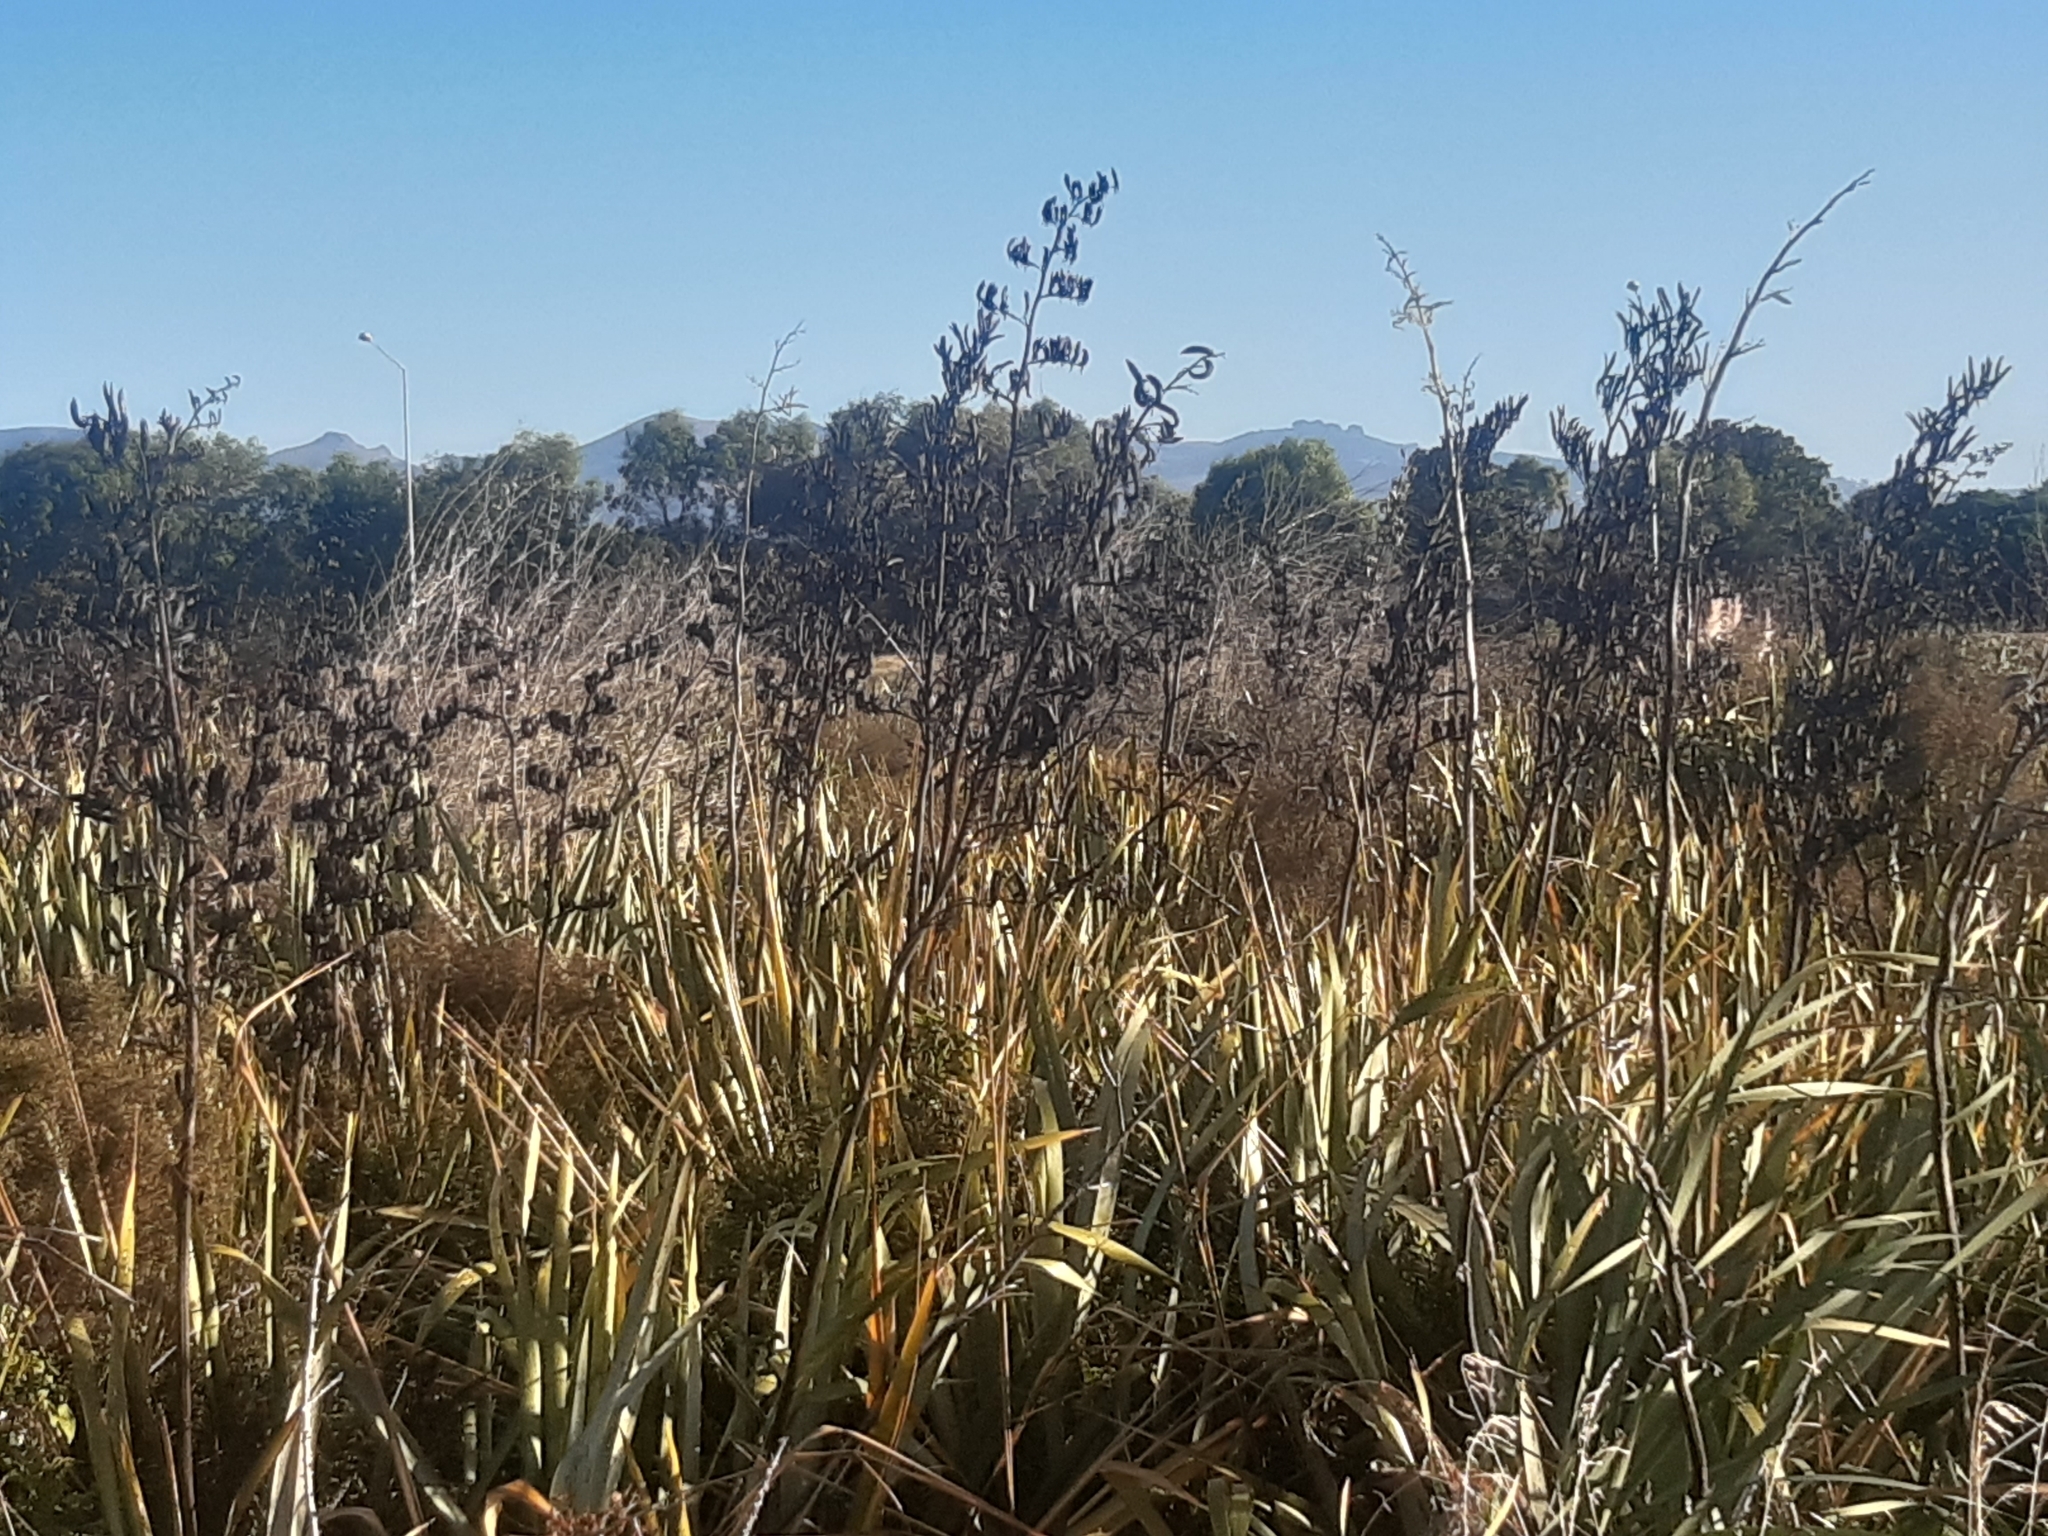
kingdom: Plantae
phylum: Tracheophyta
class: Liliopsida
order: Asparagales
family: Asphodelaceae
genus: Phormium
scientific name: Phormium tenax
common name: New zealand flax
